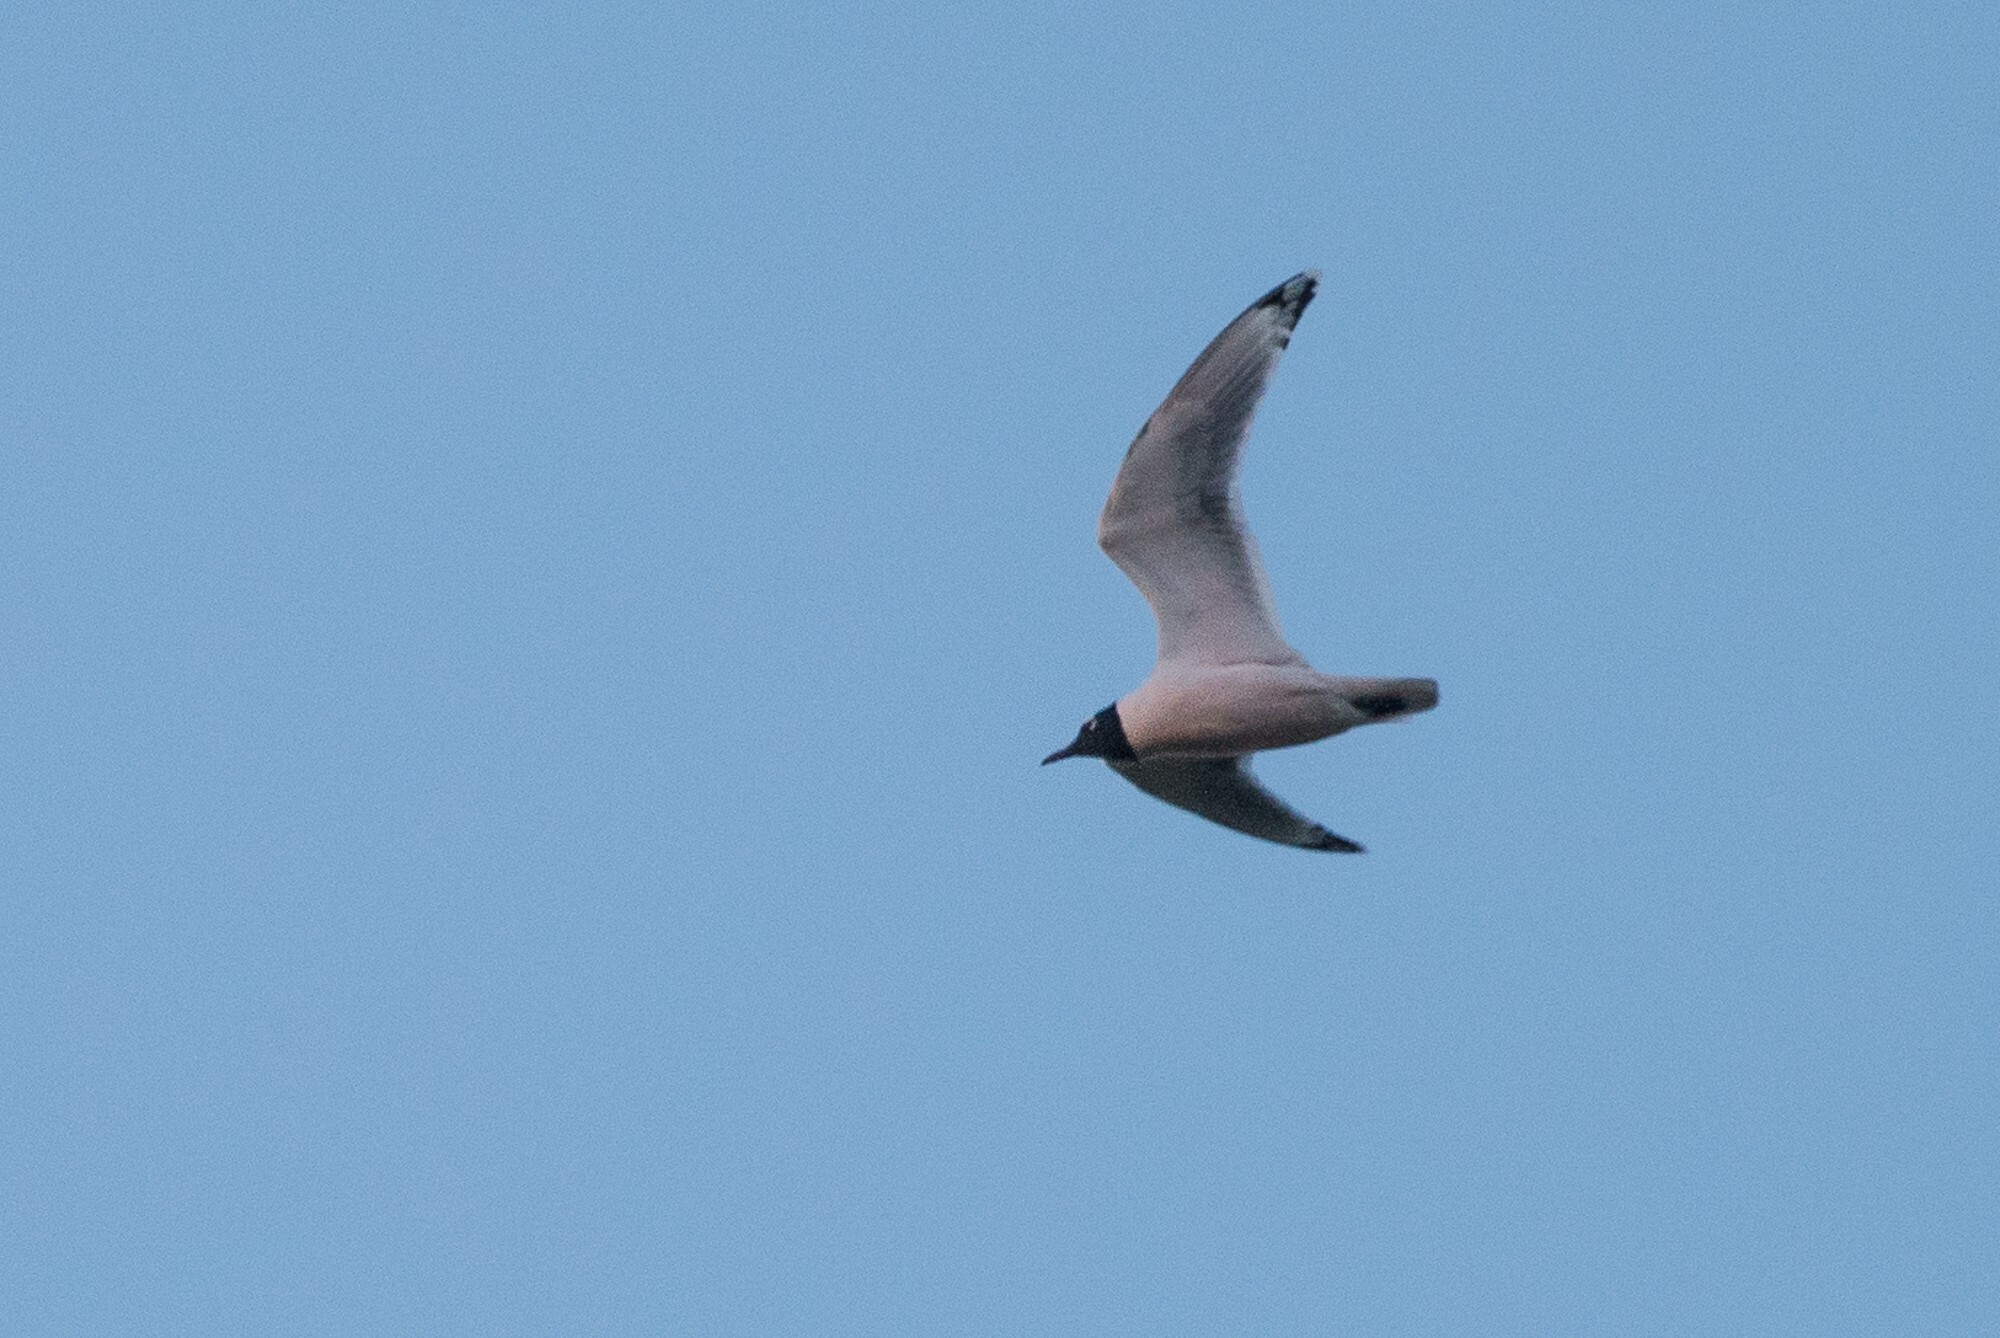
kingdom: Animalia
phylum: Chordata
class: Aves
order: Charadriiformes
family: Laridae
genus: Leucophaeus
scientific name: Leucophaeus pipixcan
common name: Franklin's gull
